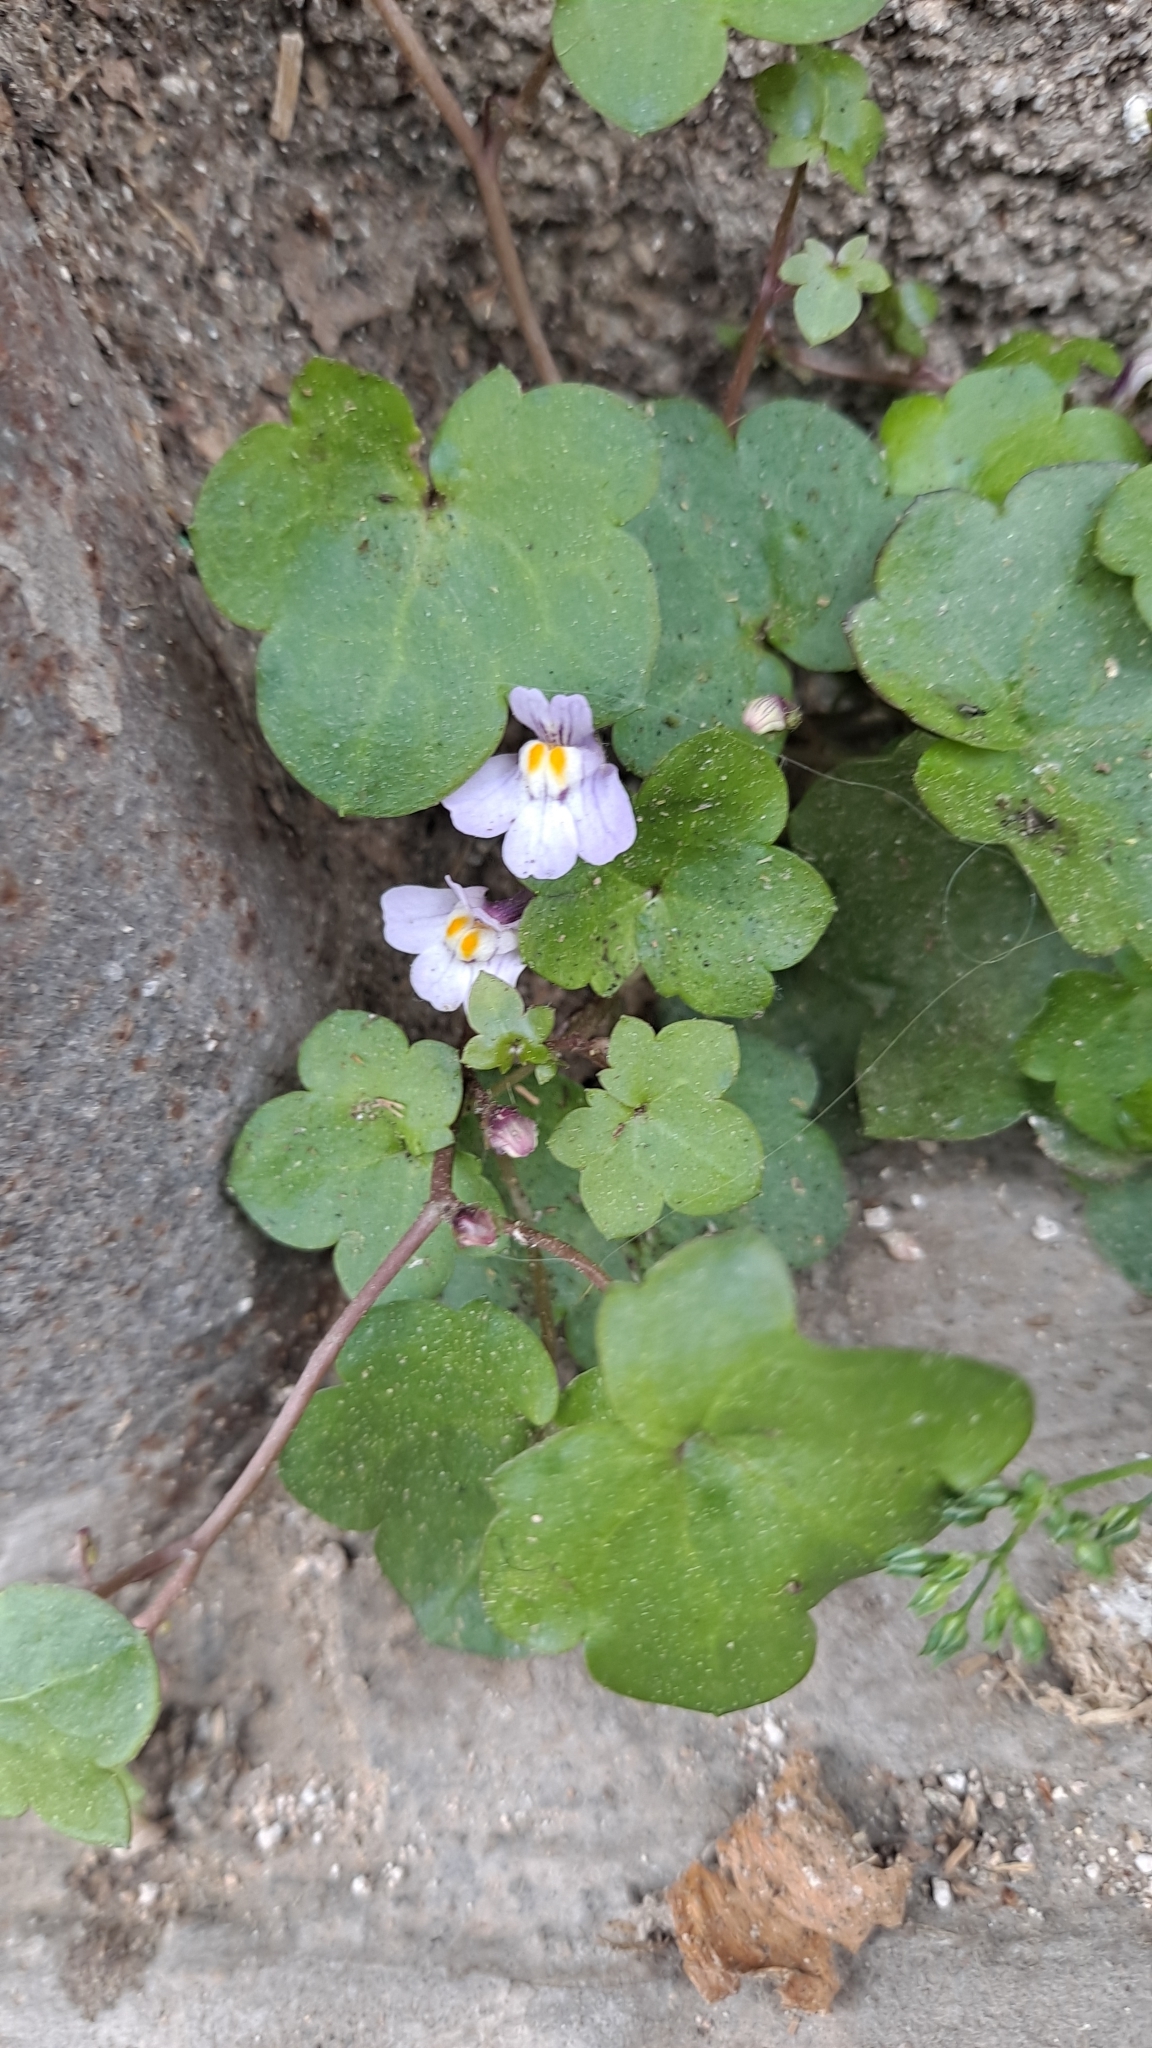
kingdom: Plantae
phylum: Tracheophyta
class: Magnoliopsida
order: Lamiales
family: Plantaginaceae
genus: Cymbalaria
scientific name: Cymbalaria muralis
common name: Ivy-leaved toadflax
